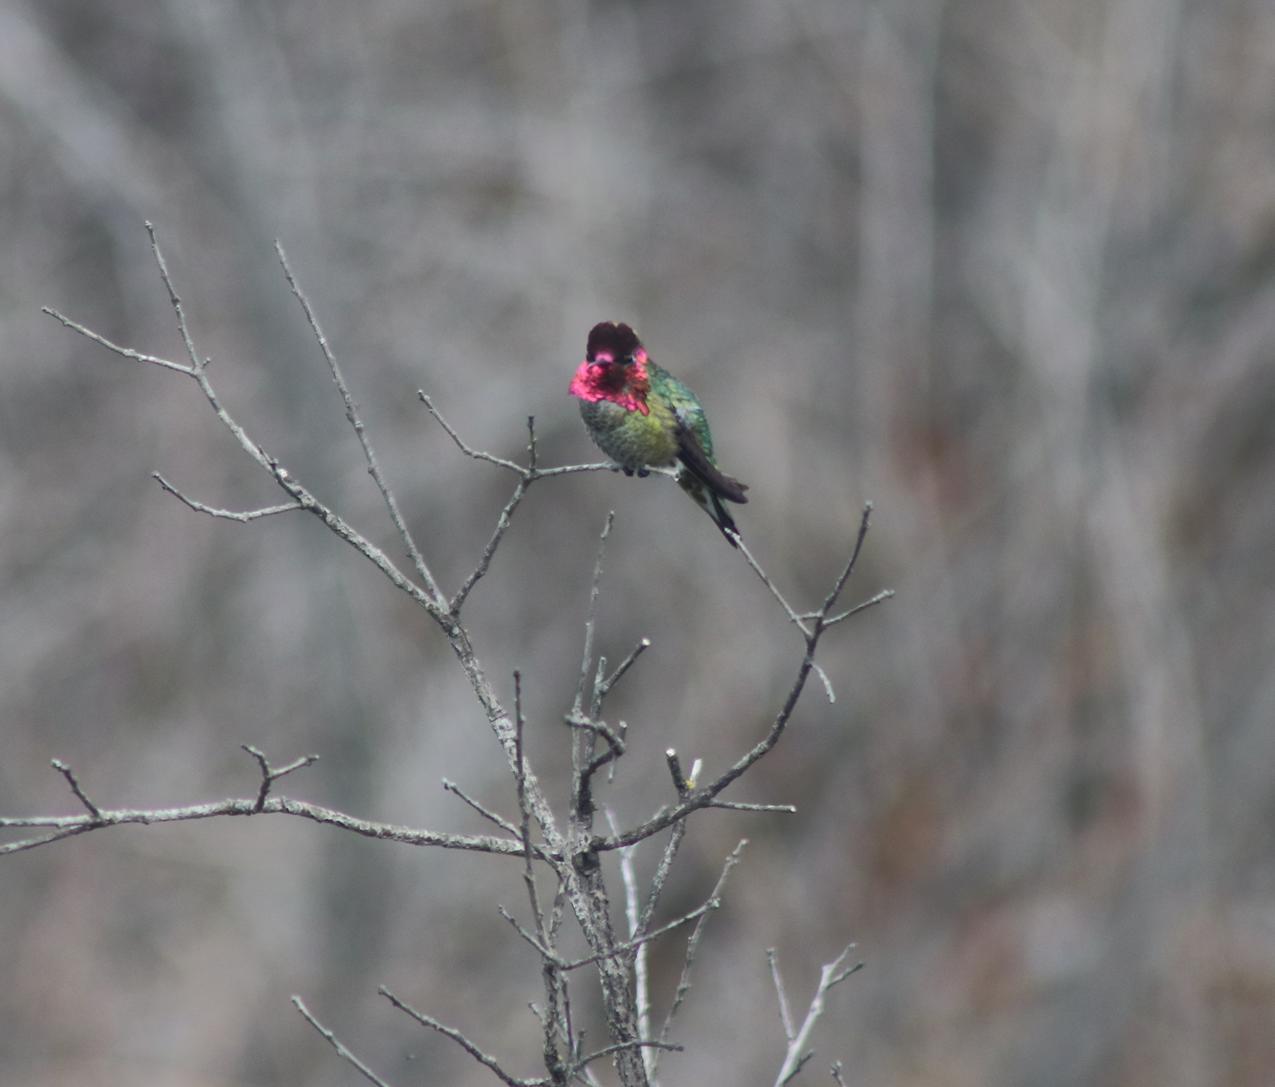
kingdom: Animalia
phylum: Chordata
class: Aves
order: Apodiformes
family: Trochilidae
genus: Calypte
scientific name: Calypte anna
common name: Anna's hummingbird
